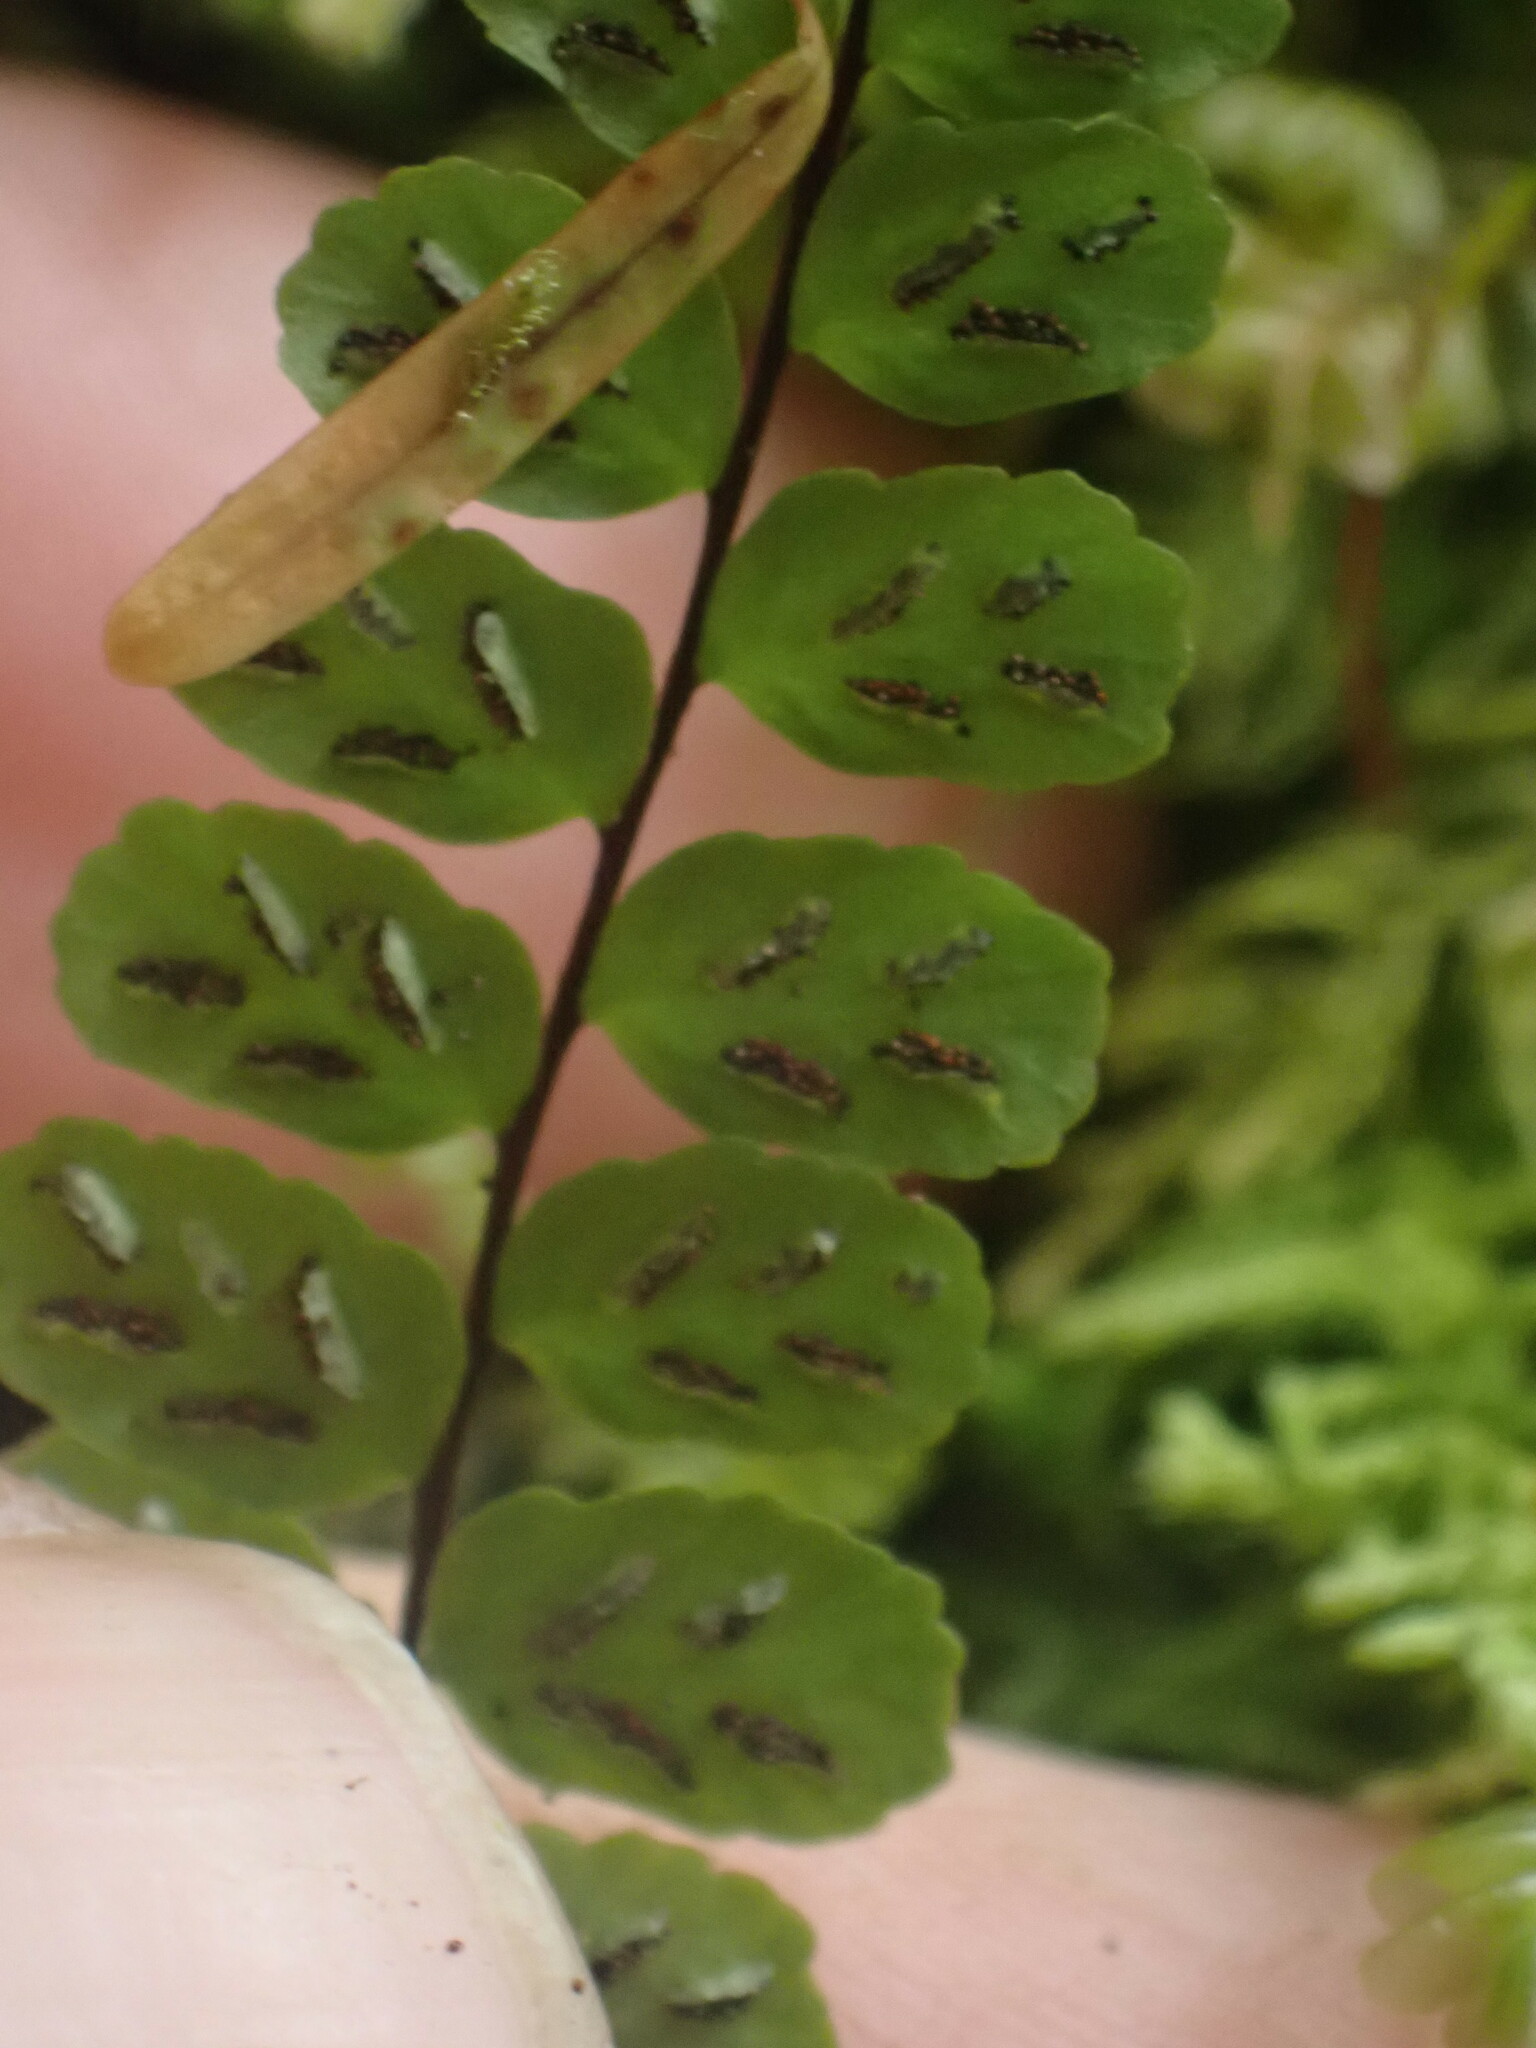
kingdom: Plantae
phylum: Tracheophyta
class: Polypodiopsida
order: Polypodiales
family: Aspleniaceae
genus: Asplenium
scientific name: Asplenium trichomanes
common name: Maidenhair spleenwort
